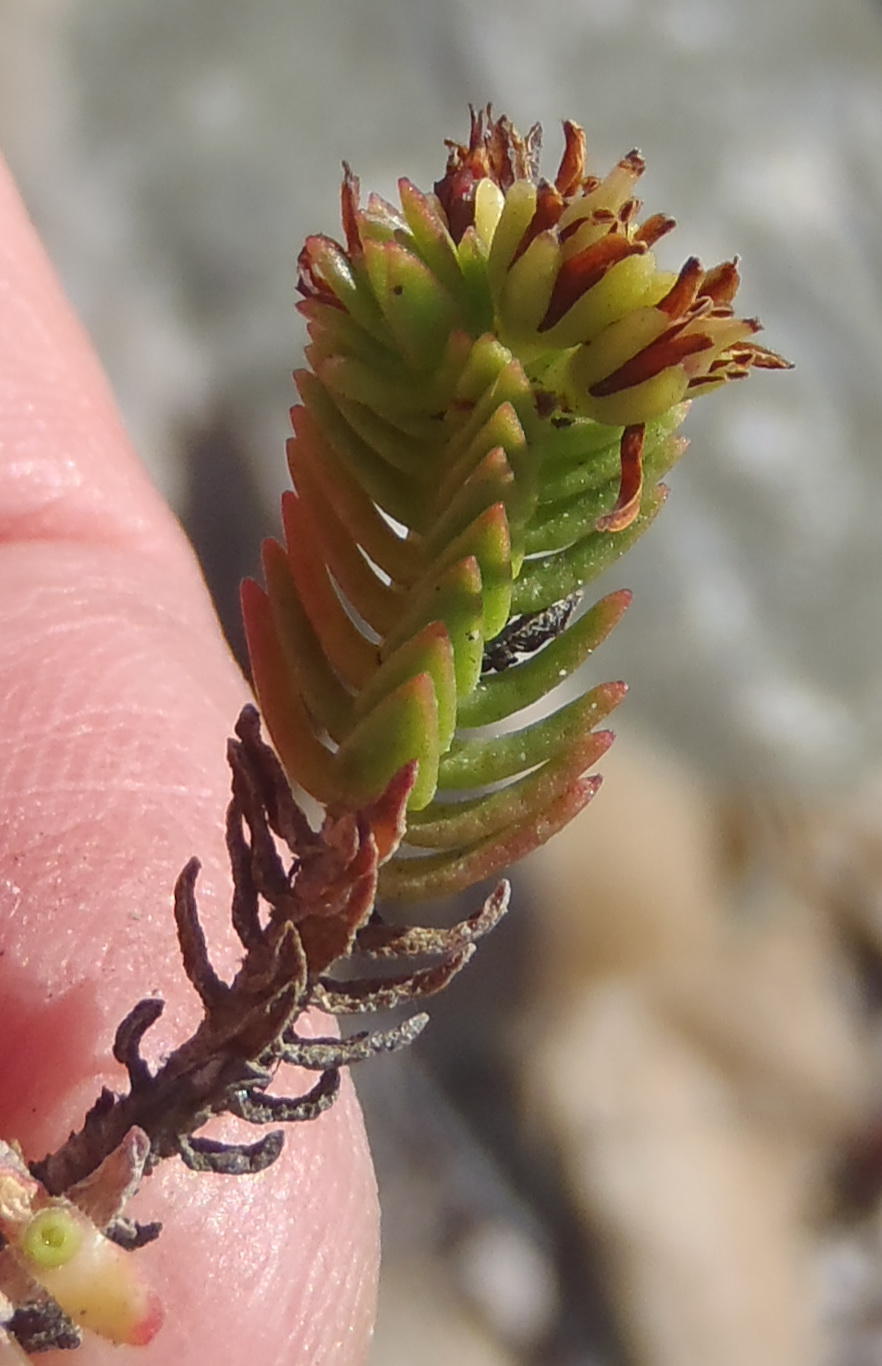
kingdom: Plantae
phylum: Tracheophyta
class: Magnoliopsida
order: Saxifragales
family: Crassulaceae
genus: Crassula
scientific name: Crassula ericoides
